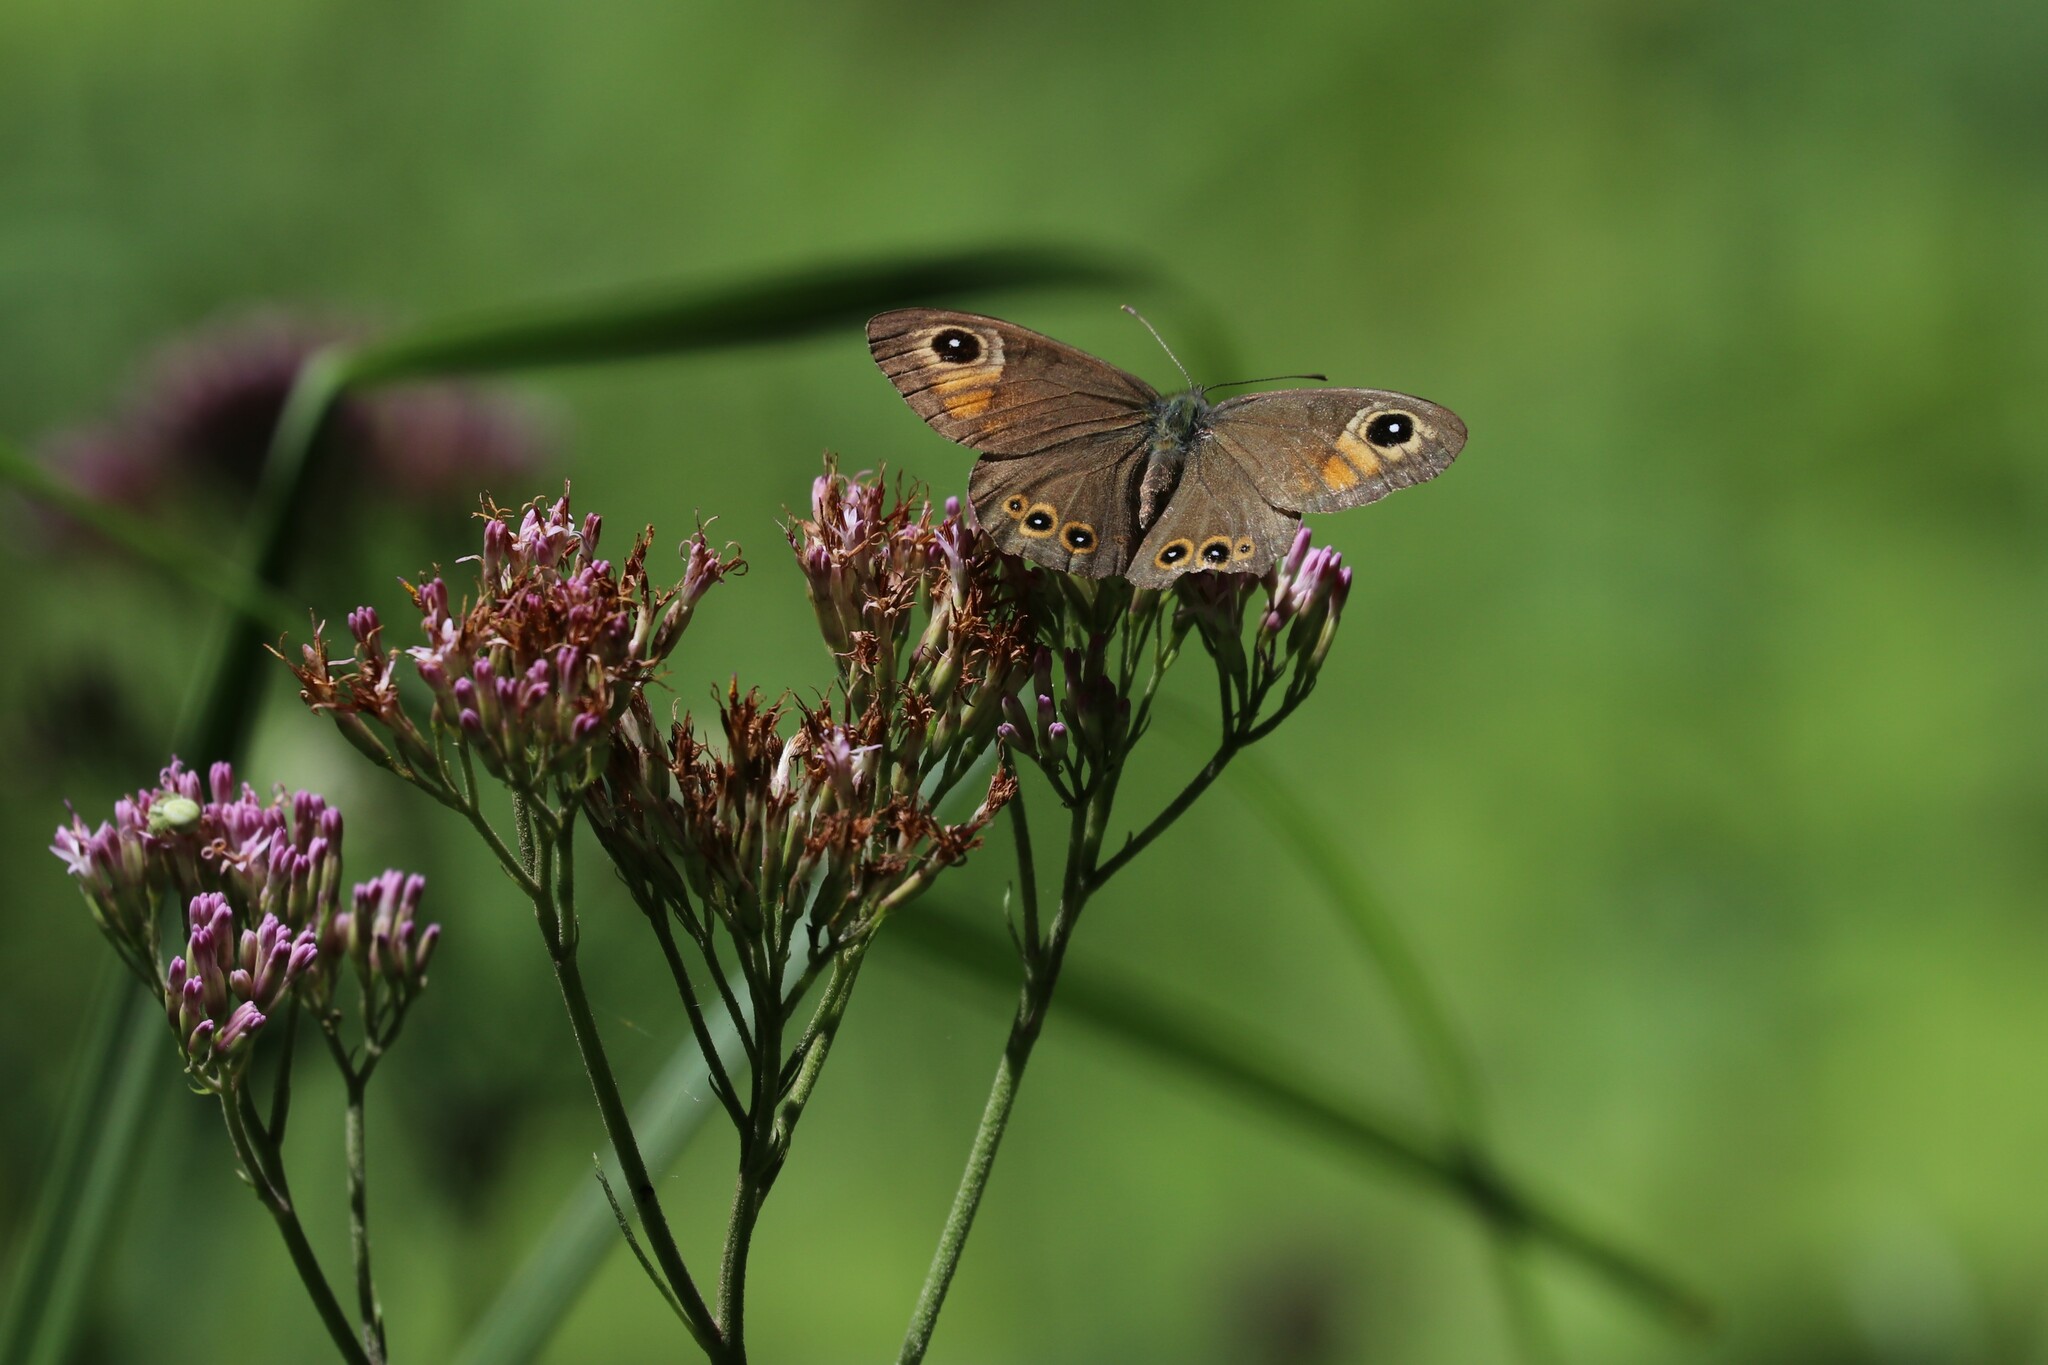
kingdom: Animalia
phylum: Arthropoda
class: Insecta
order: Lepidoptera
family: Nymphalidae
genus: Pararge
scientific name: Pararge Lasiommata maera
